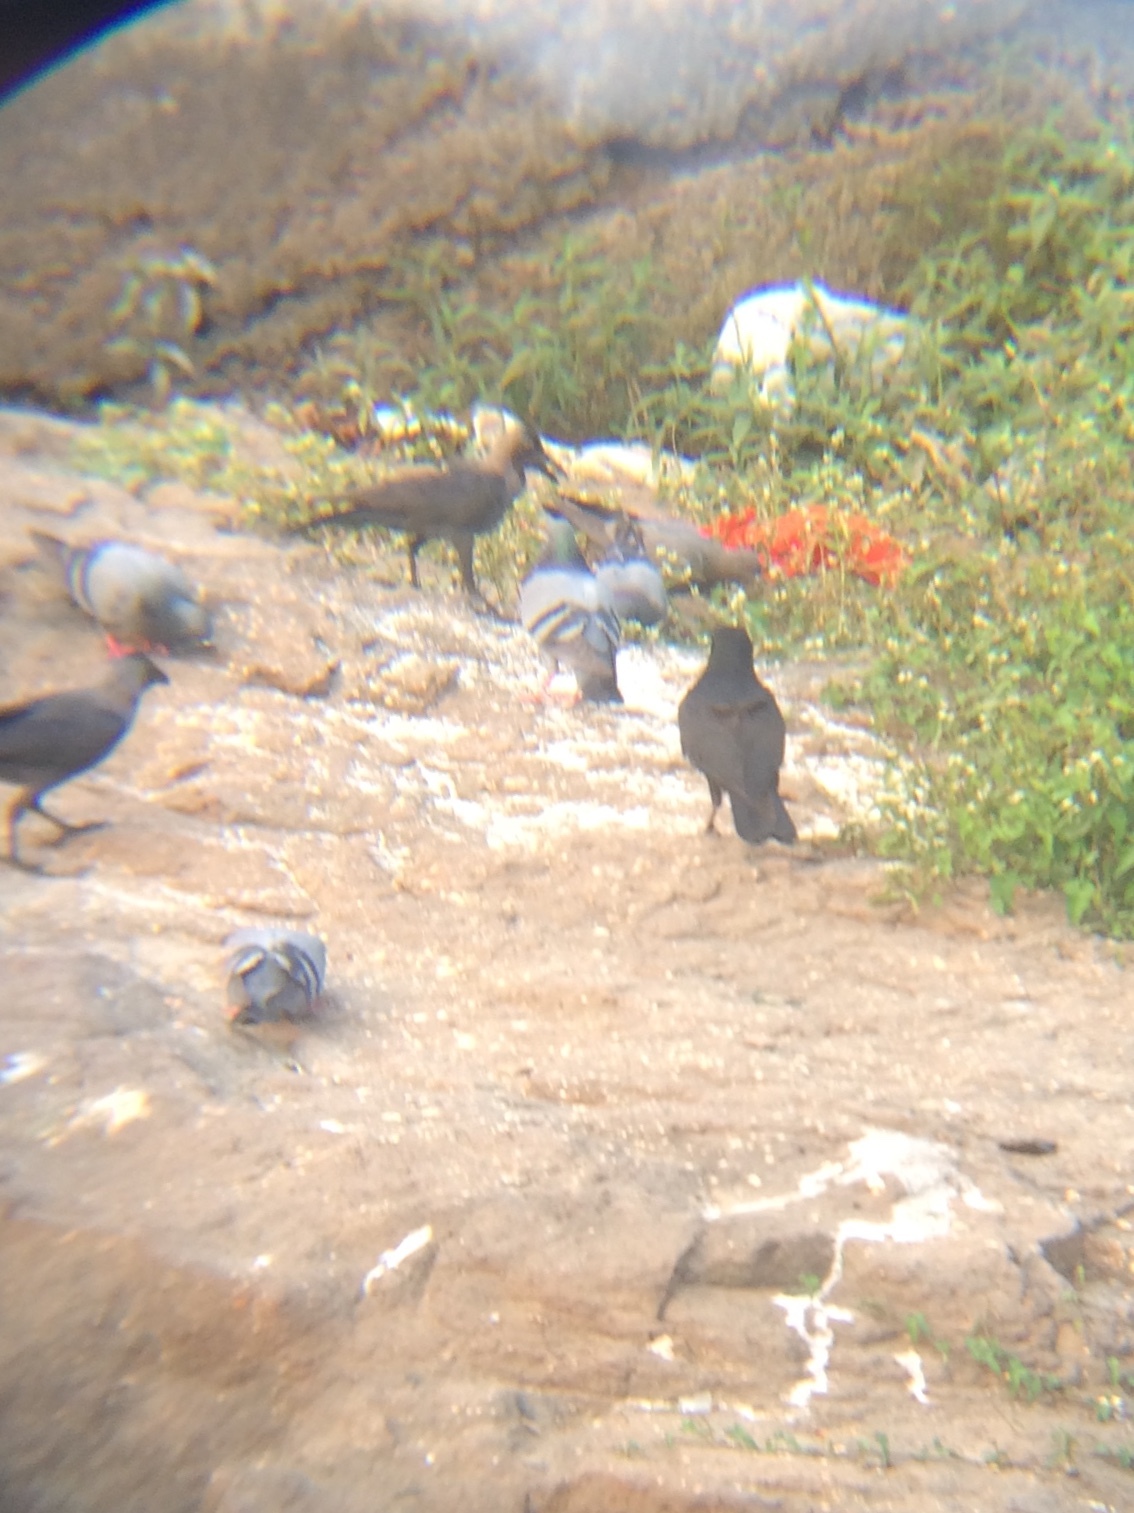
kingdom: Animalia
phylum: Chordata
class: Aves
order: Passeriformes
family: Corvidae
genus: Corvus
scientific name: Corvus macrorhynchos
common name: Large-billed crow
